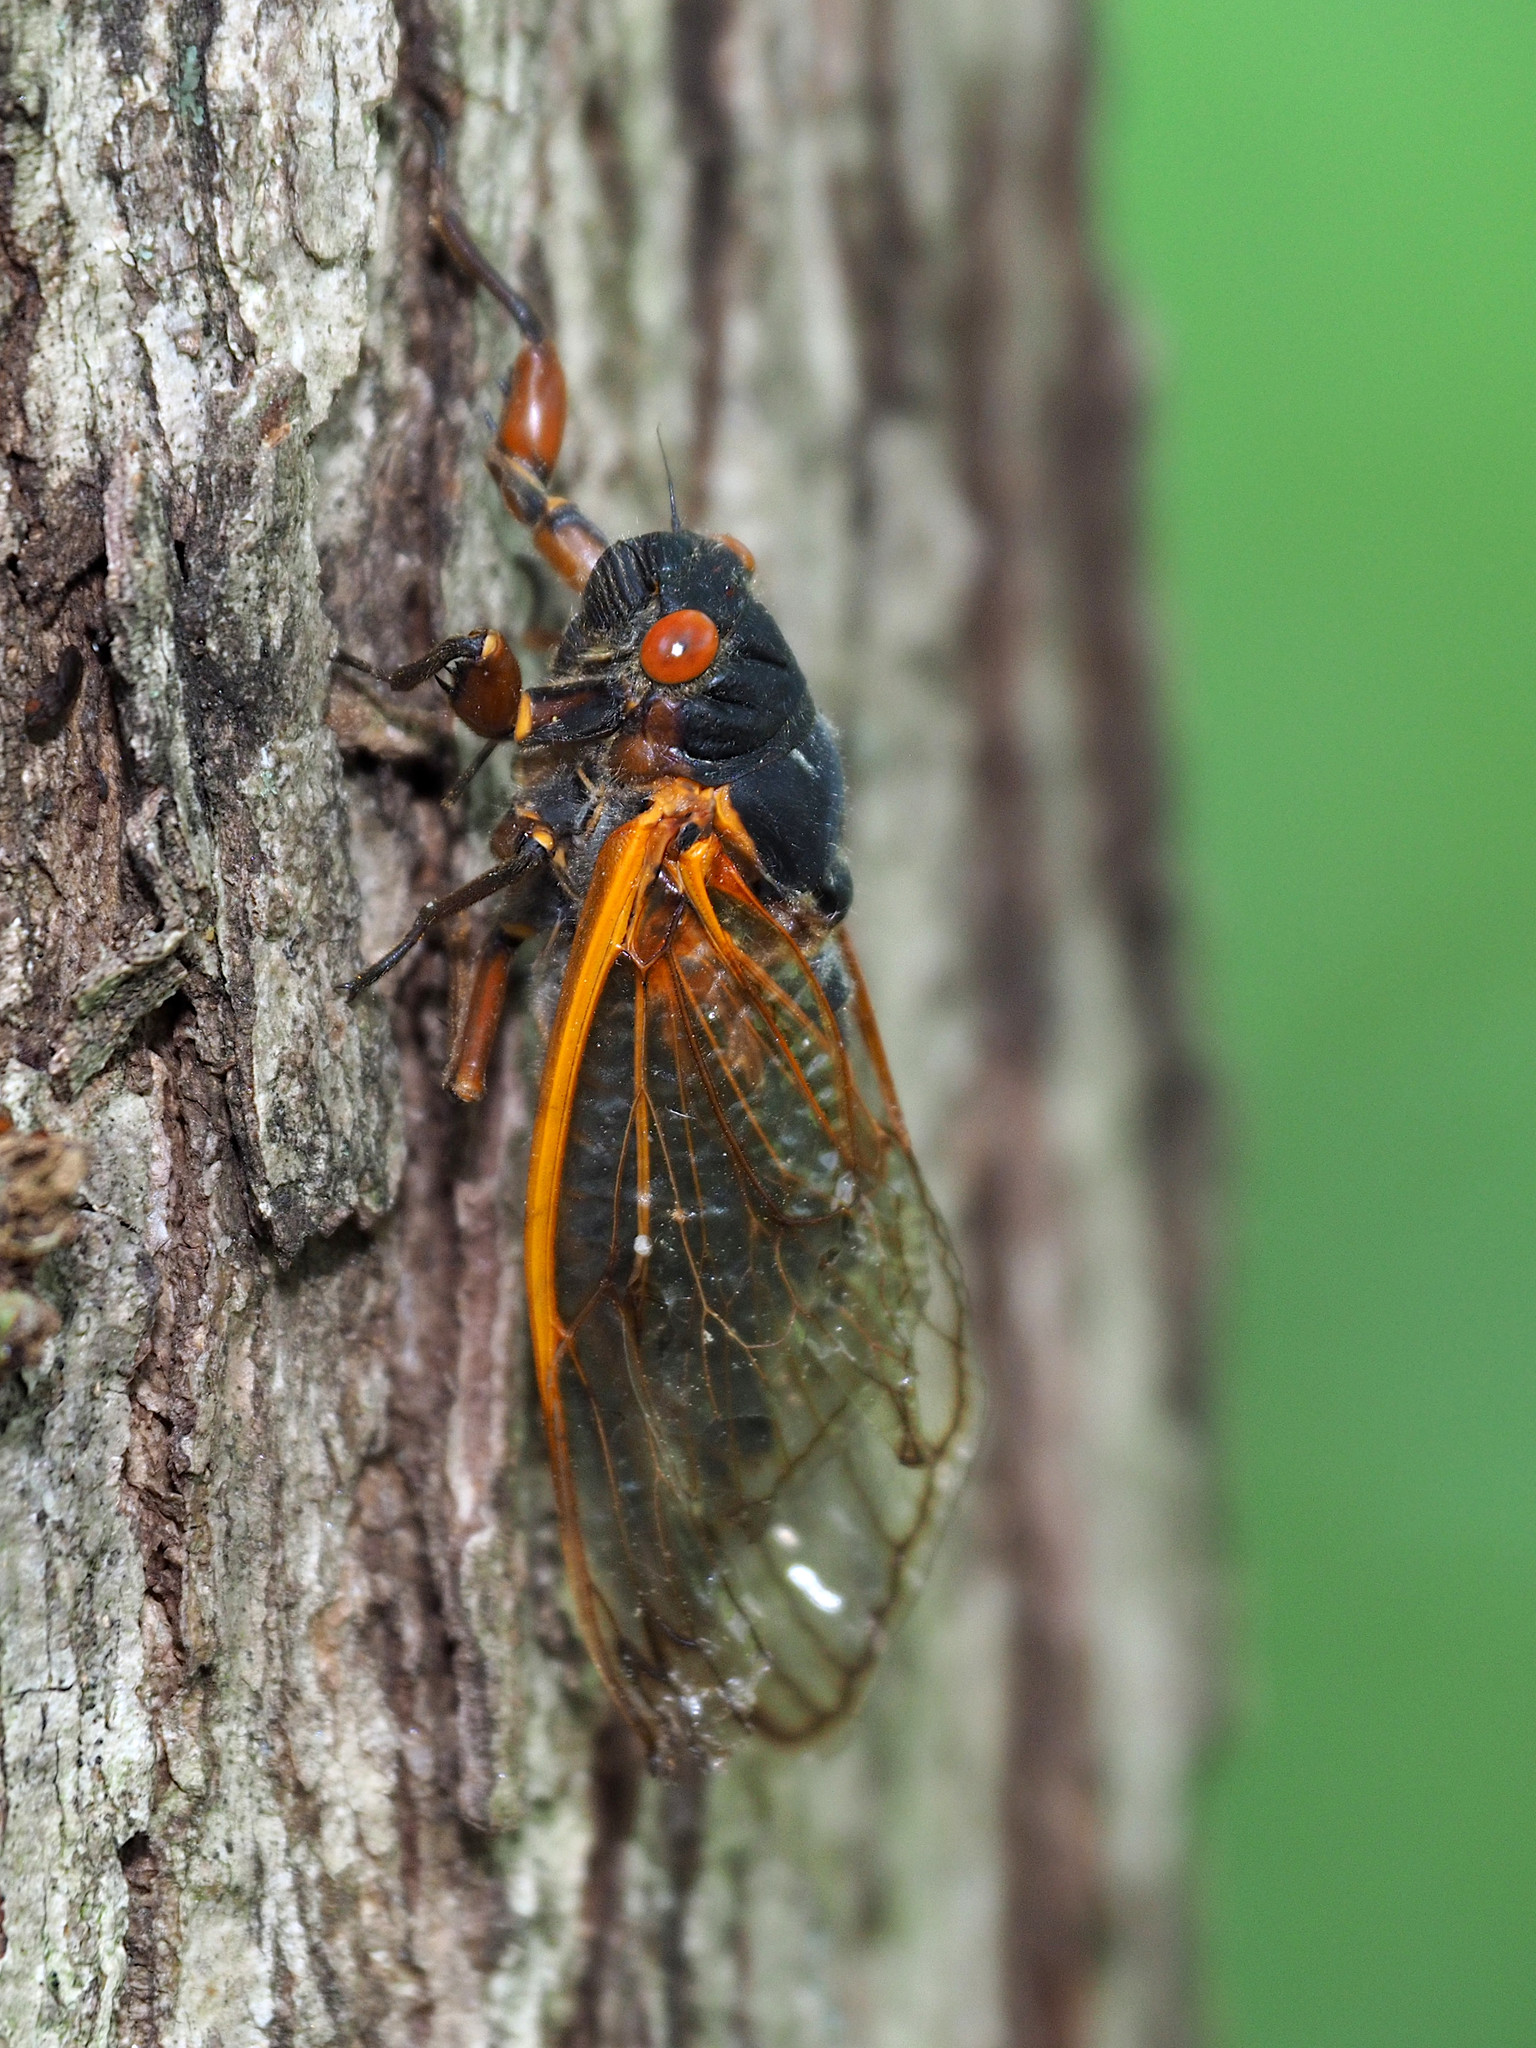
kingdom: Animalia
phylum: Arthropoda
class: Insecta
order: Hemiptera
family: Cicadidae
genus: Magicicada
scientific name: Magicicada septendecim
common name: Periodical cicada
